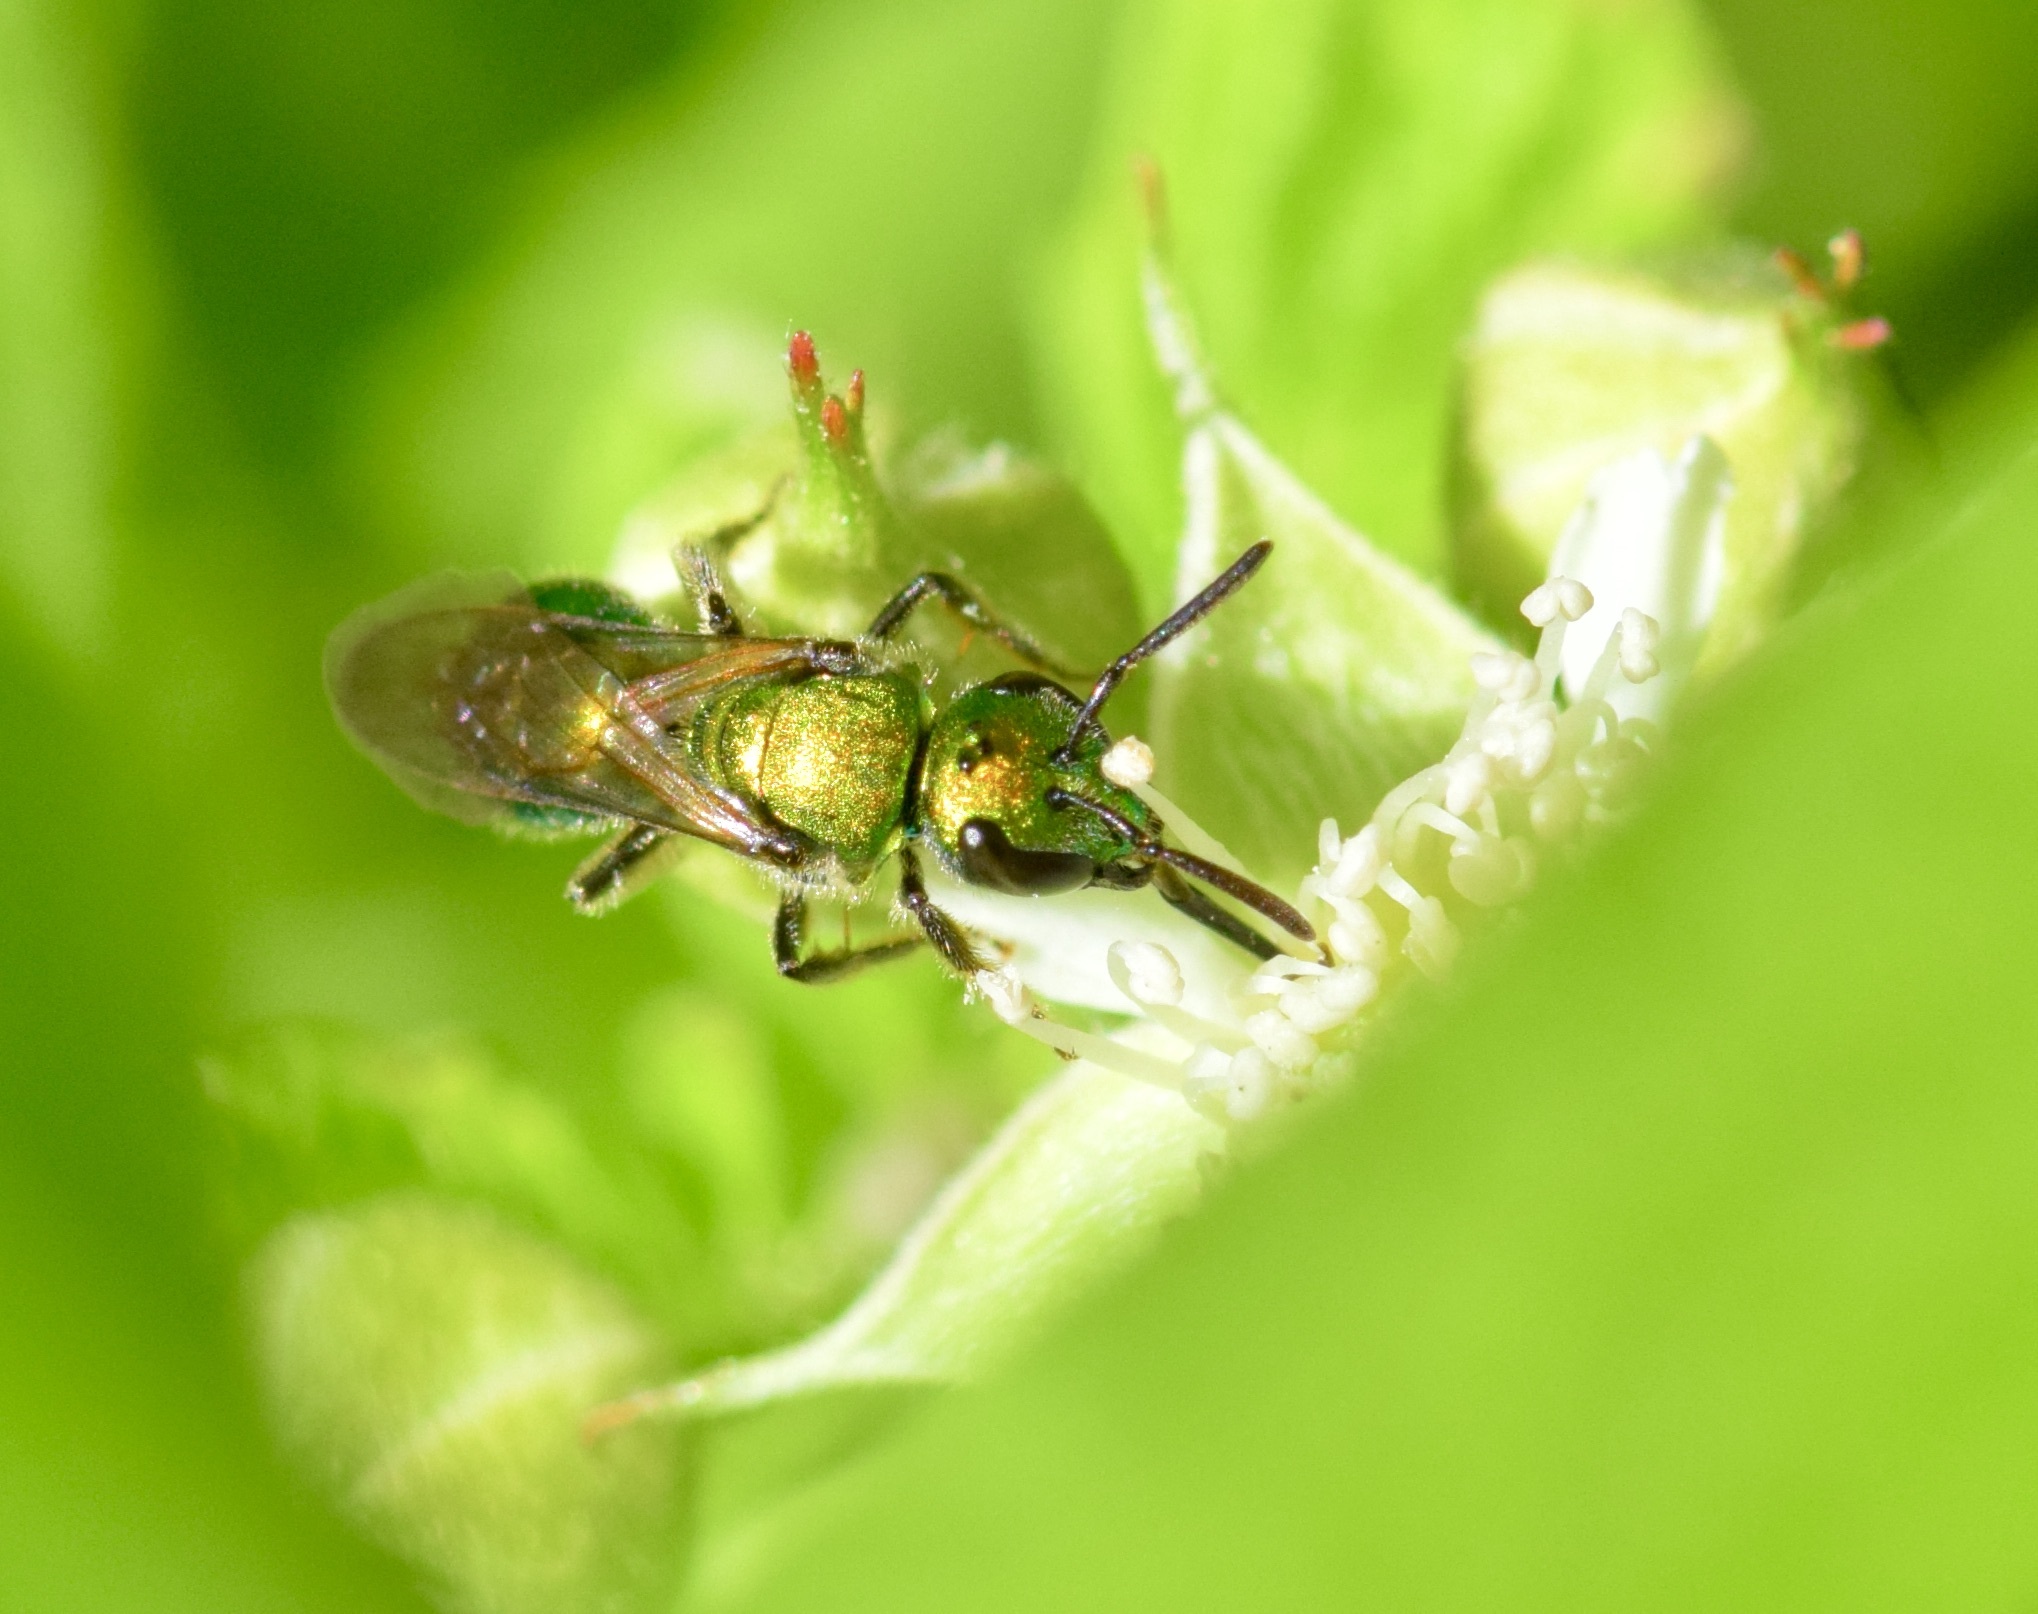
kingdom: Animalia
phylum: Arthropoda
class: Insecta
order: Hymenoptera
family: Halictidae
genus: Augochlora
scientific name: Augochlora pura
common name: Pure green sweat bee
